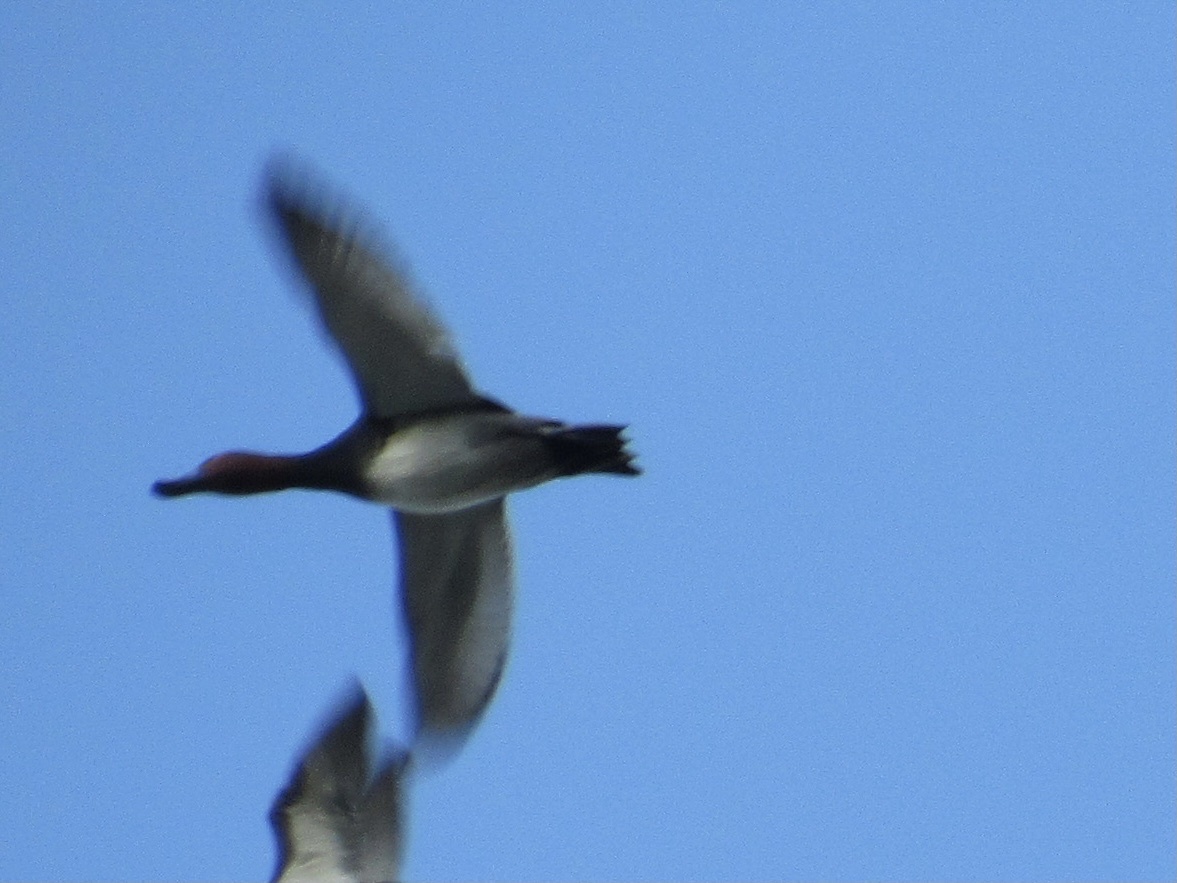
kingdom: Animalia
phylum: Chordata
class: Aves
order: Anseriformes
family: Anatidae
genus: Aythya
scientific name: Aythya americana
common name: Redhead
